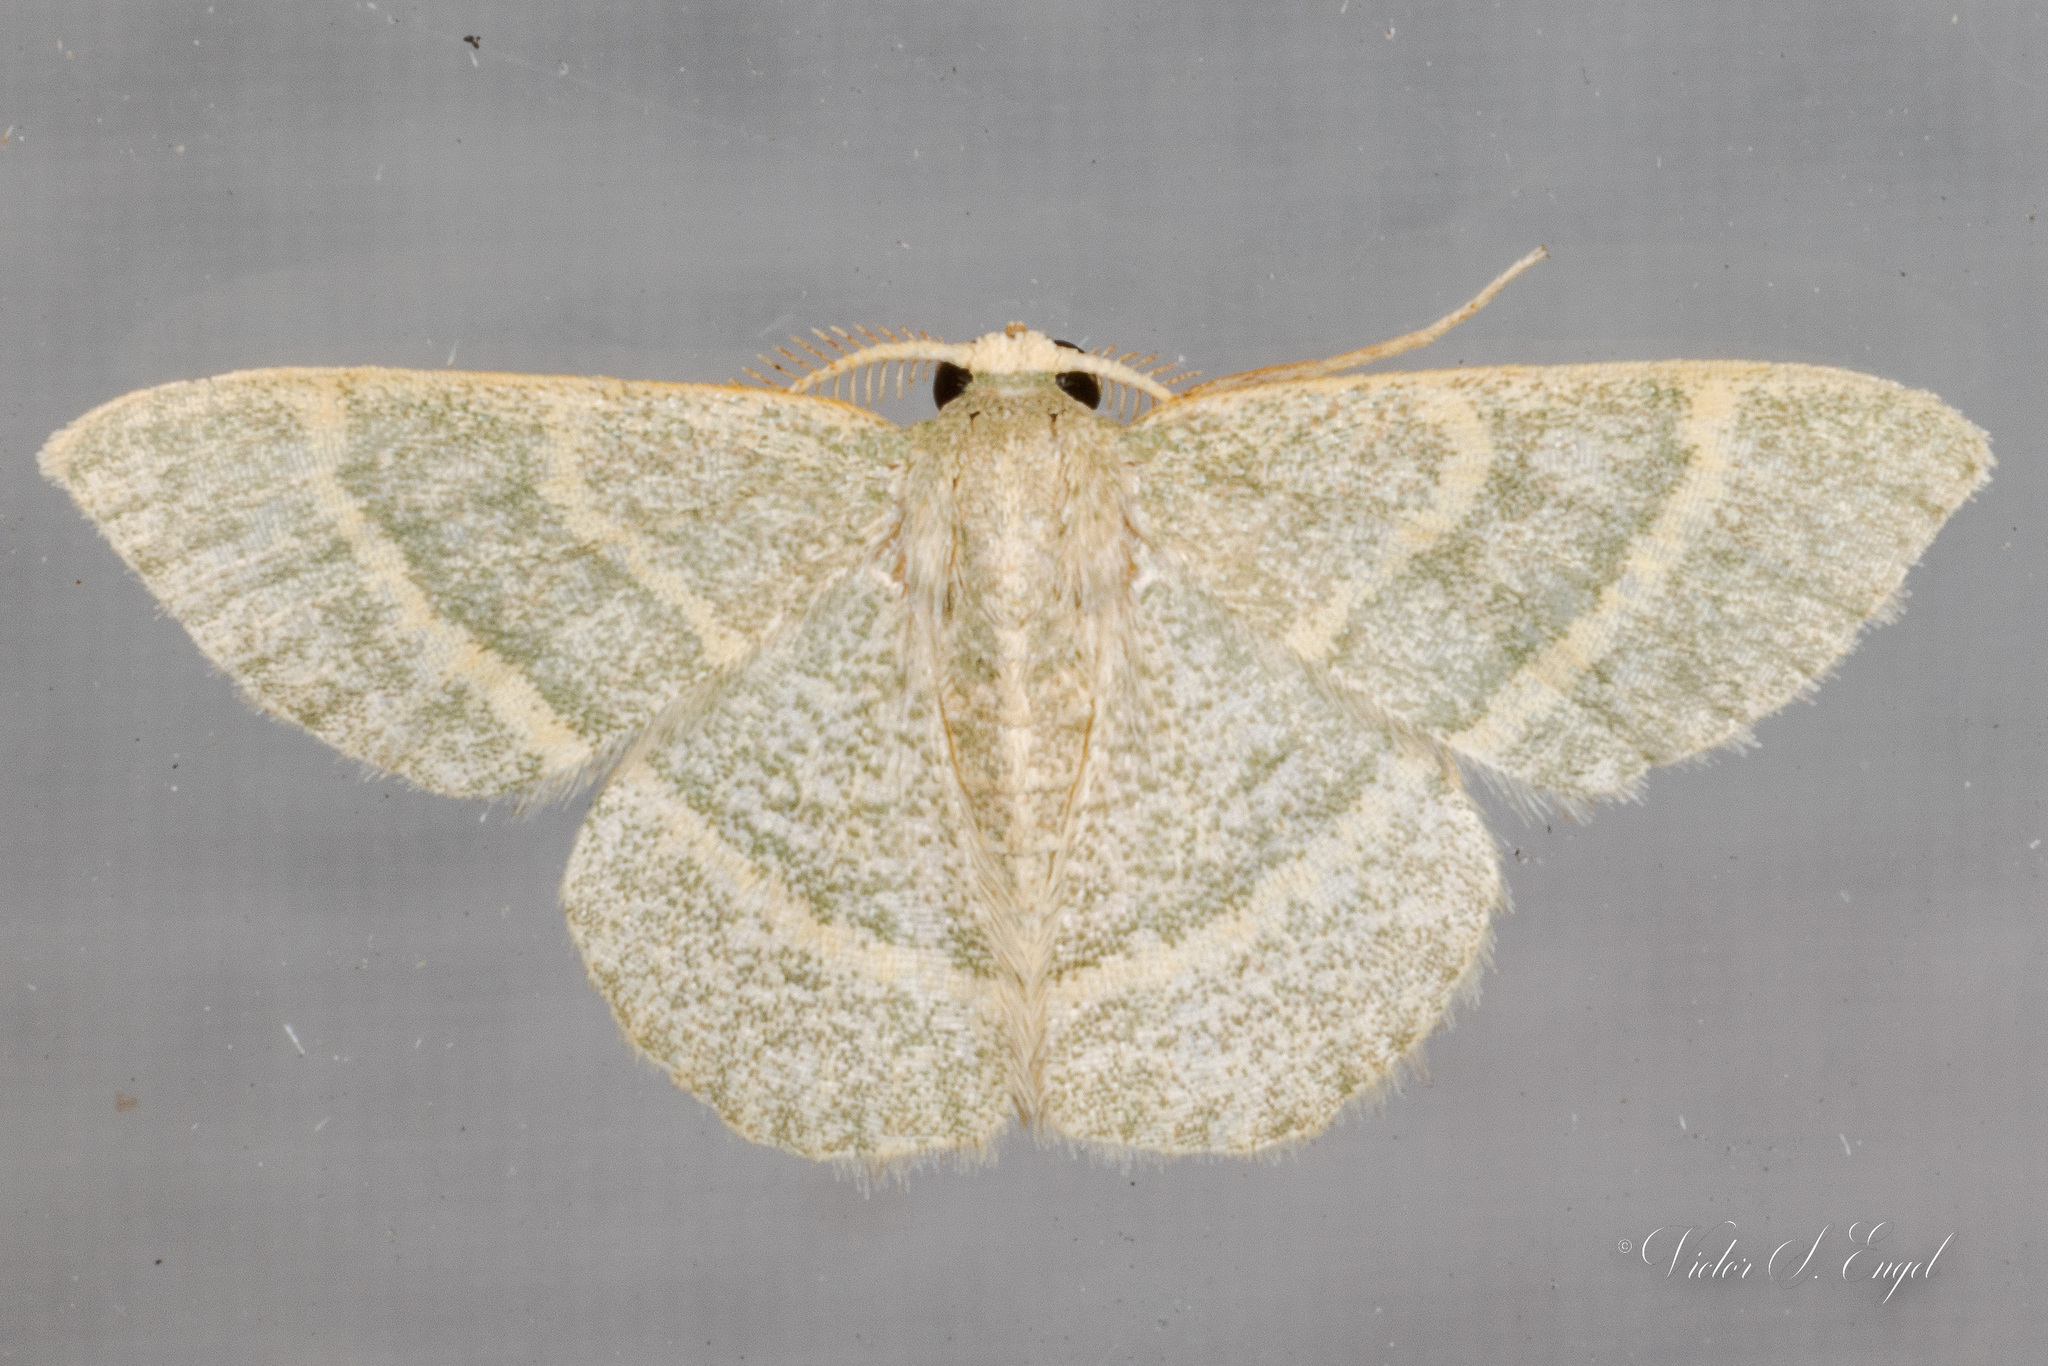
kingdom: Animalia
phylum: Arthropoda
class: Insecta
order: Lepidoptera
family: Geometridae
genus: Chlorochlamys
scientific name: Chlorochlamys chloroleucaria
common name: Blackberry looper
